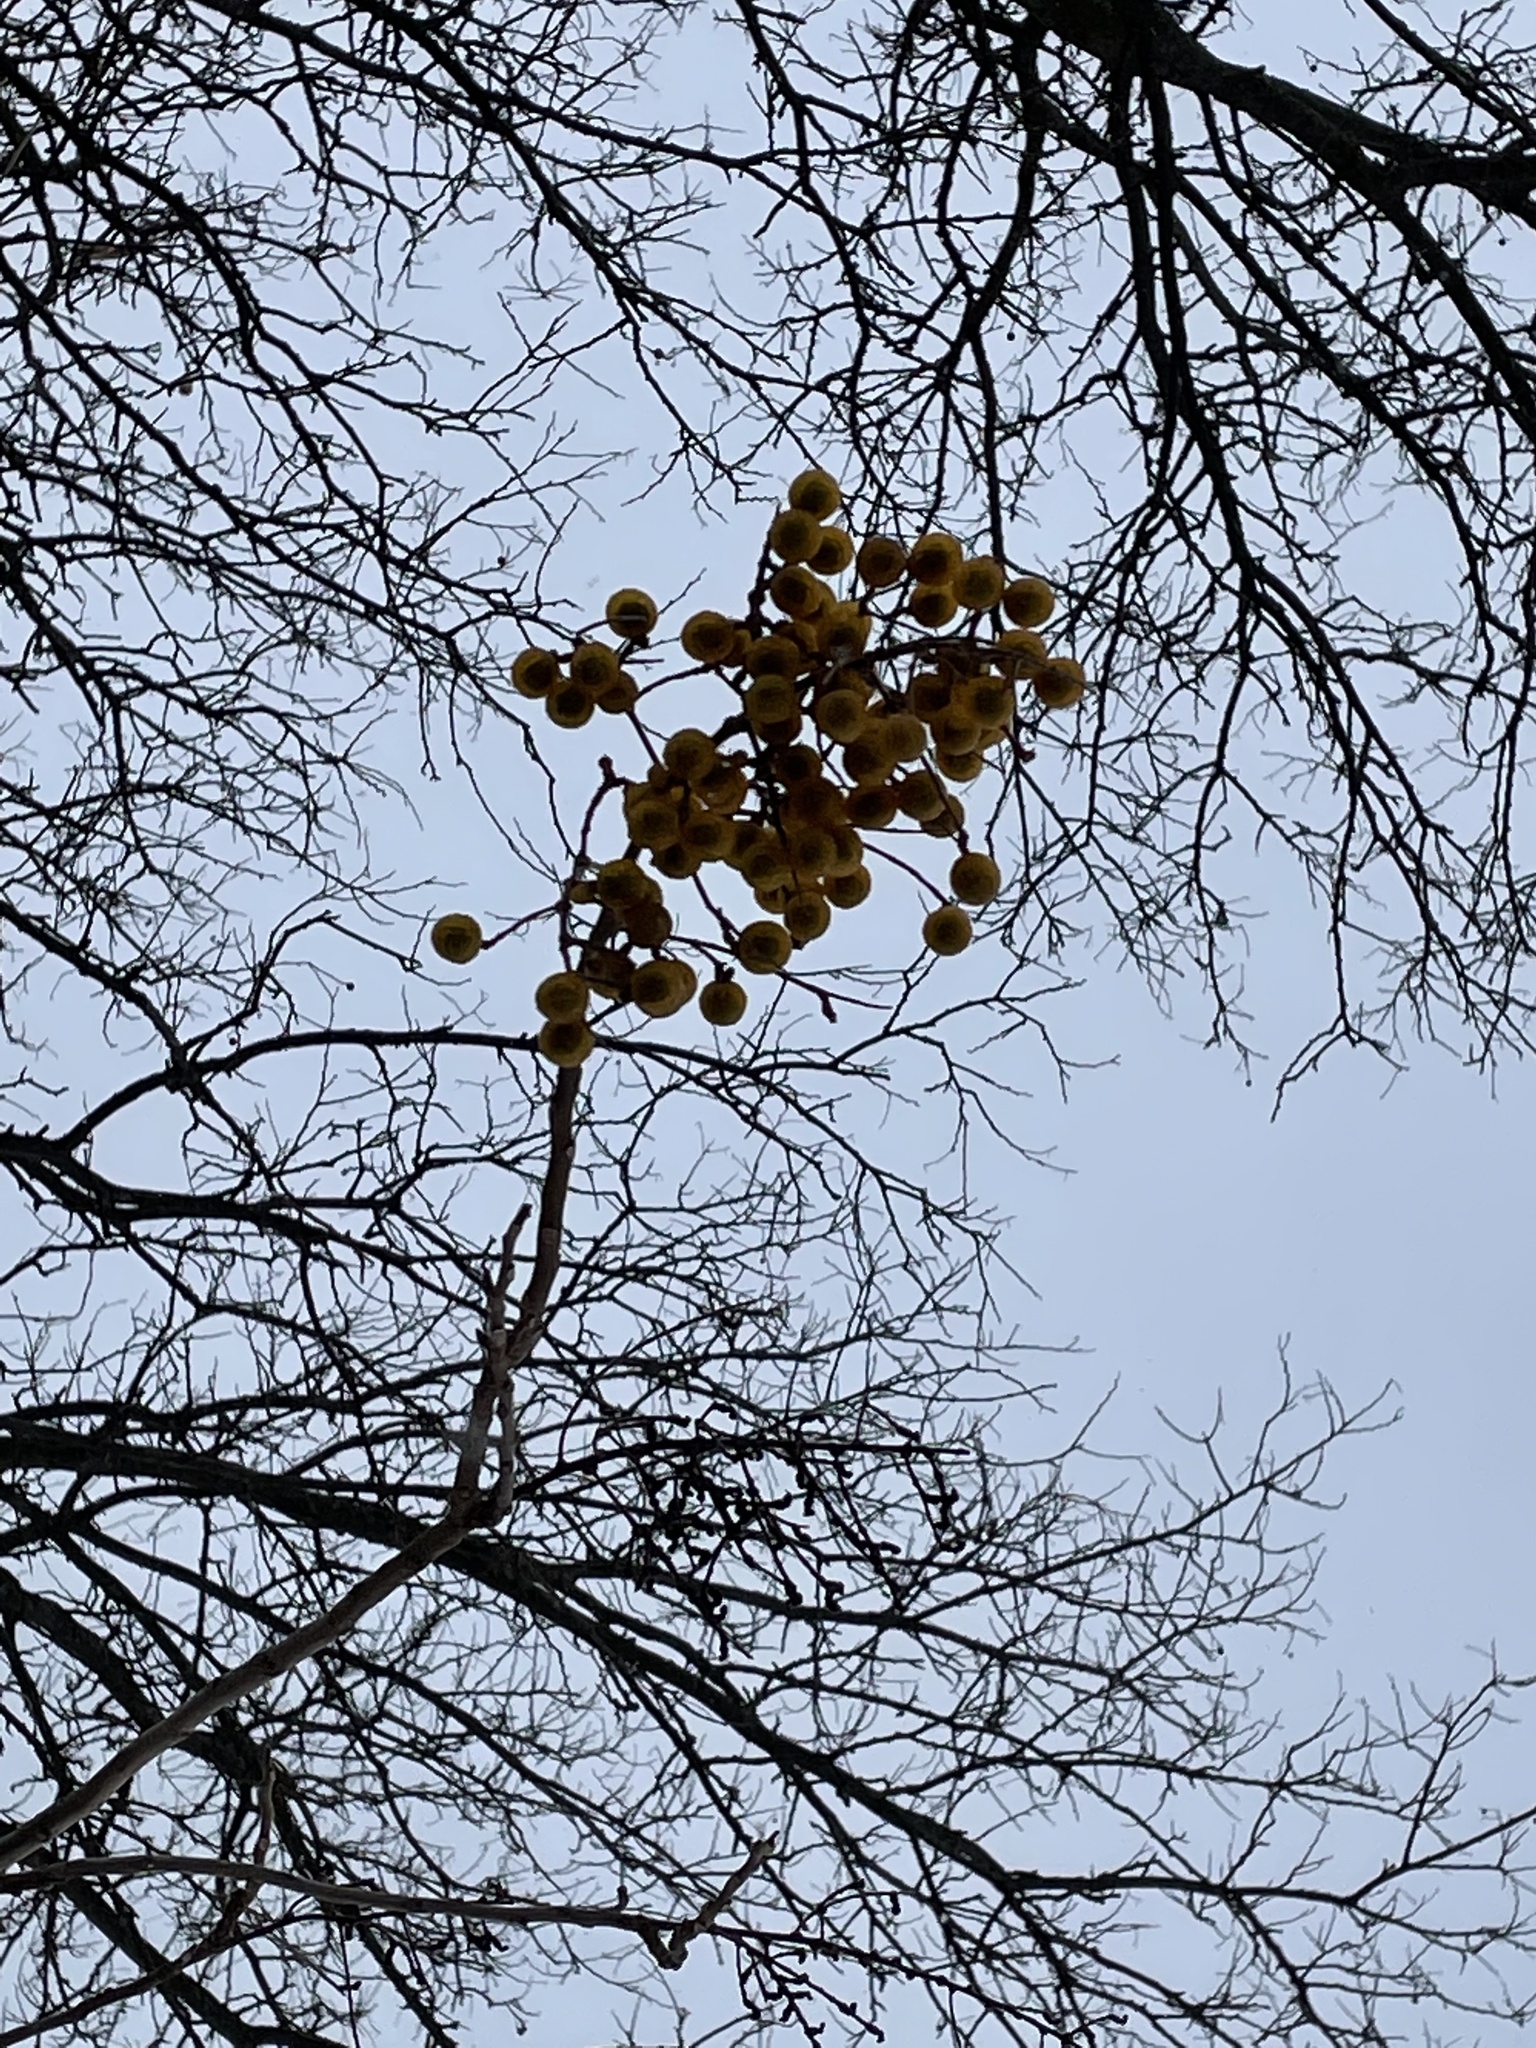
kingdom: Plantae
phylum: Tracheophyta
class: Magnoliopsida
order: Sapindales
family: Sapindaceae
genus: Sapindus
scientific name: Sapindus drummondii
